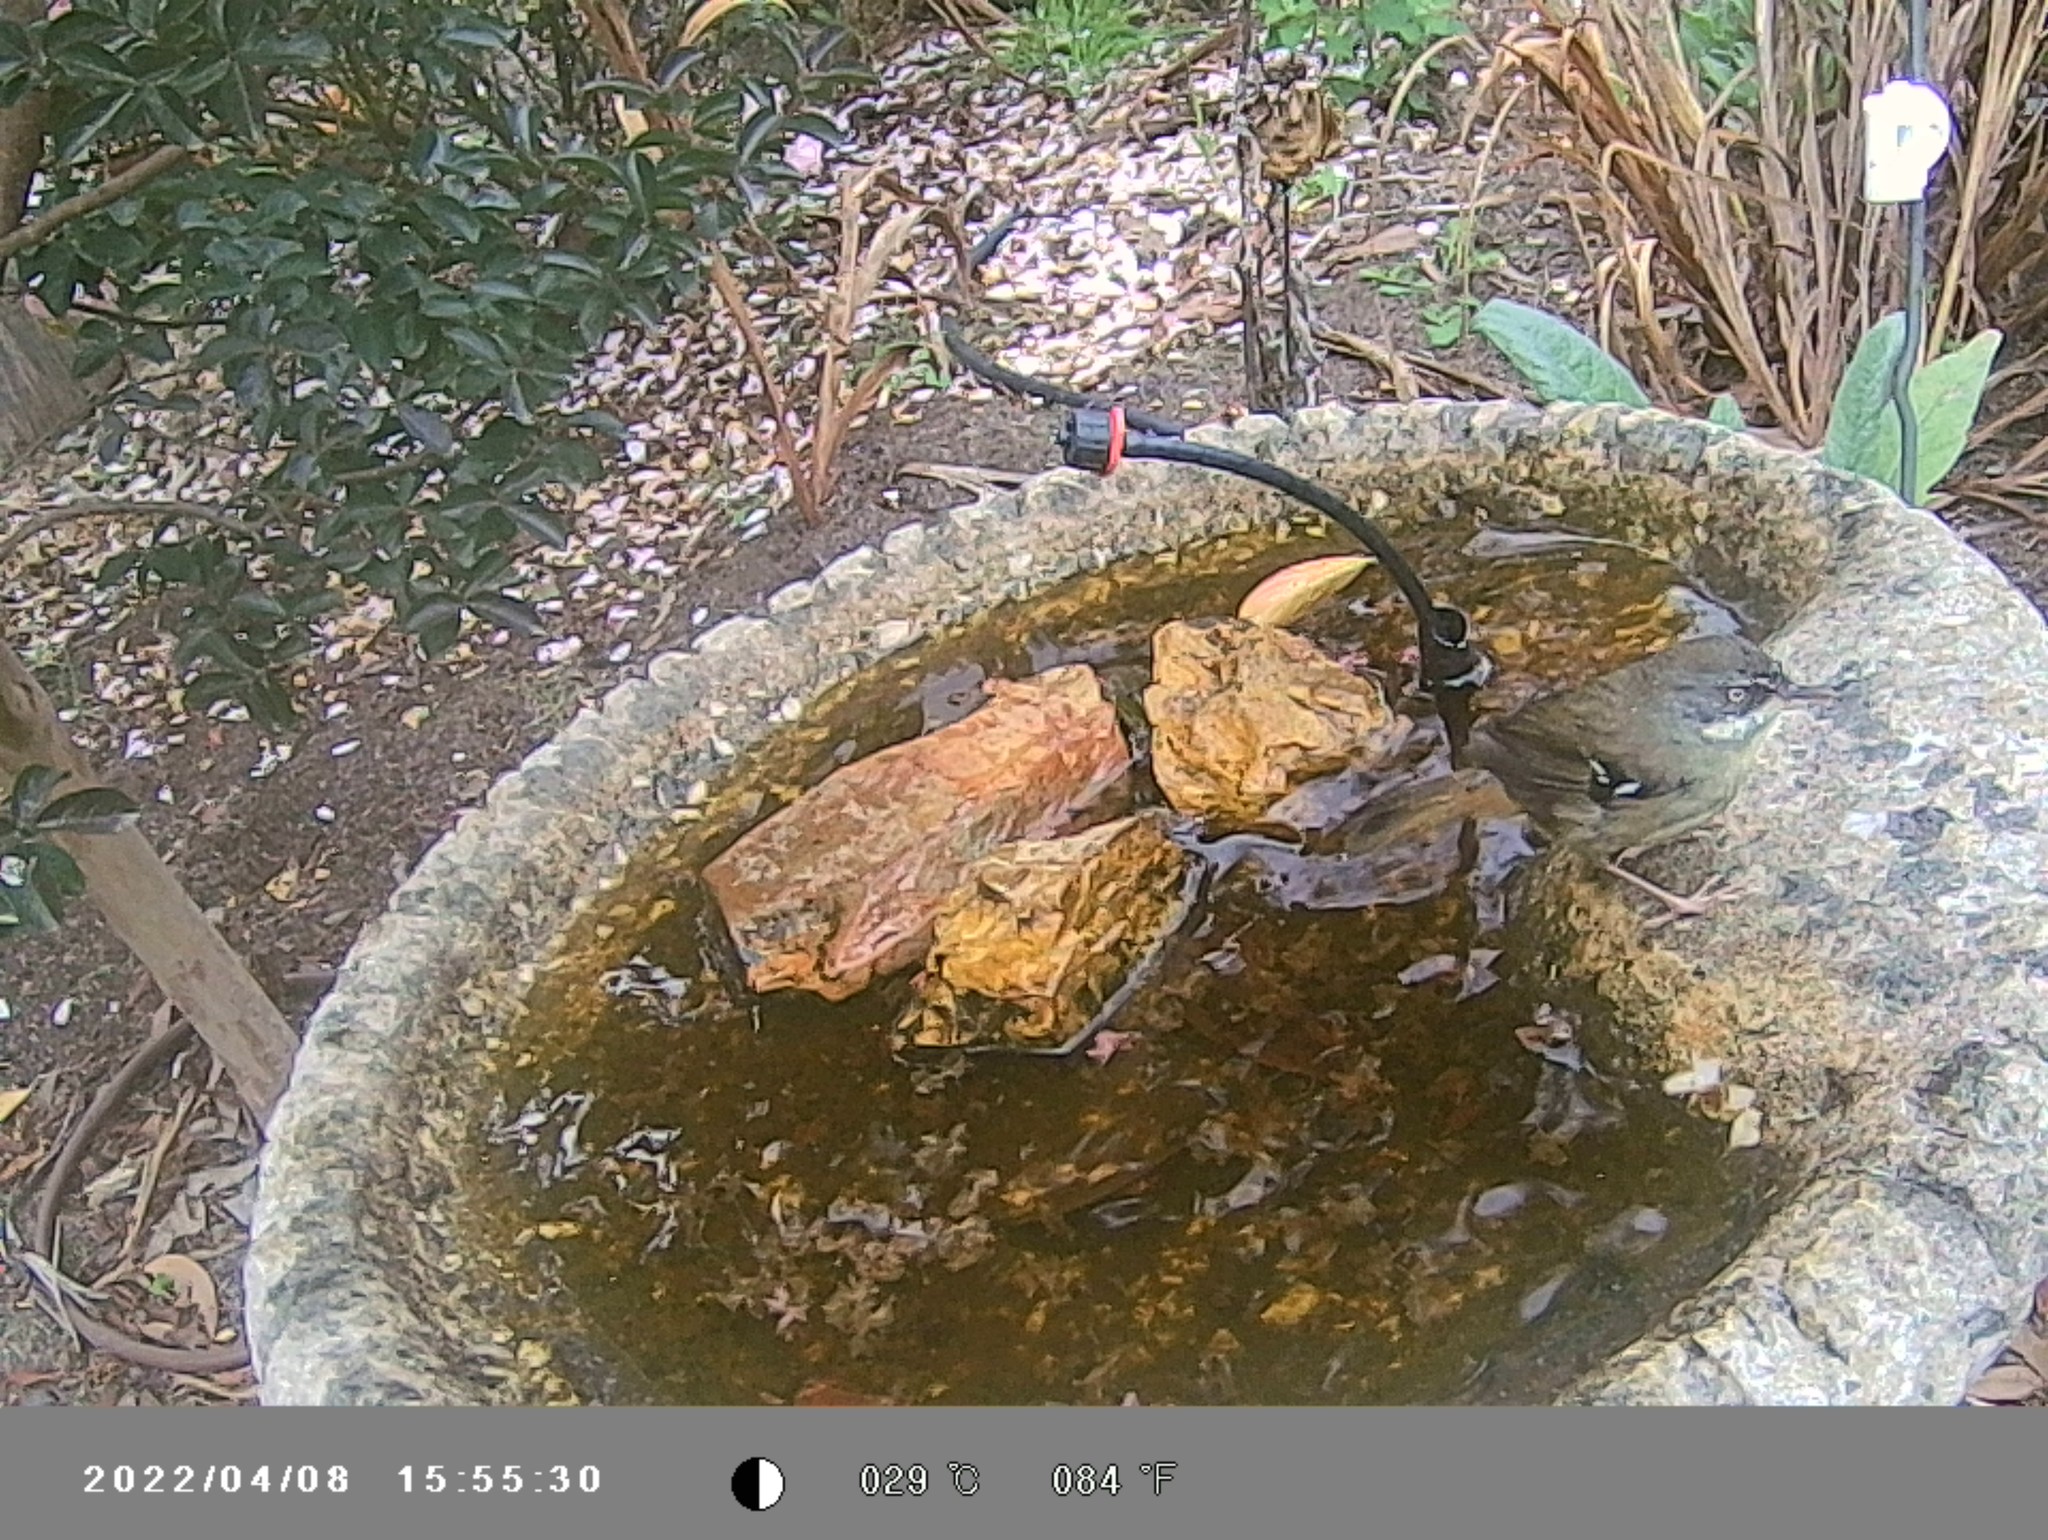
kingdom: Animalia
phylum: Chordata
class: Aves
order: Passeriformes
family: Acanthizidae
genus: Sericornis
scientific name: Sericornis frontalis
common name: White-browed scrubwren
